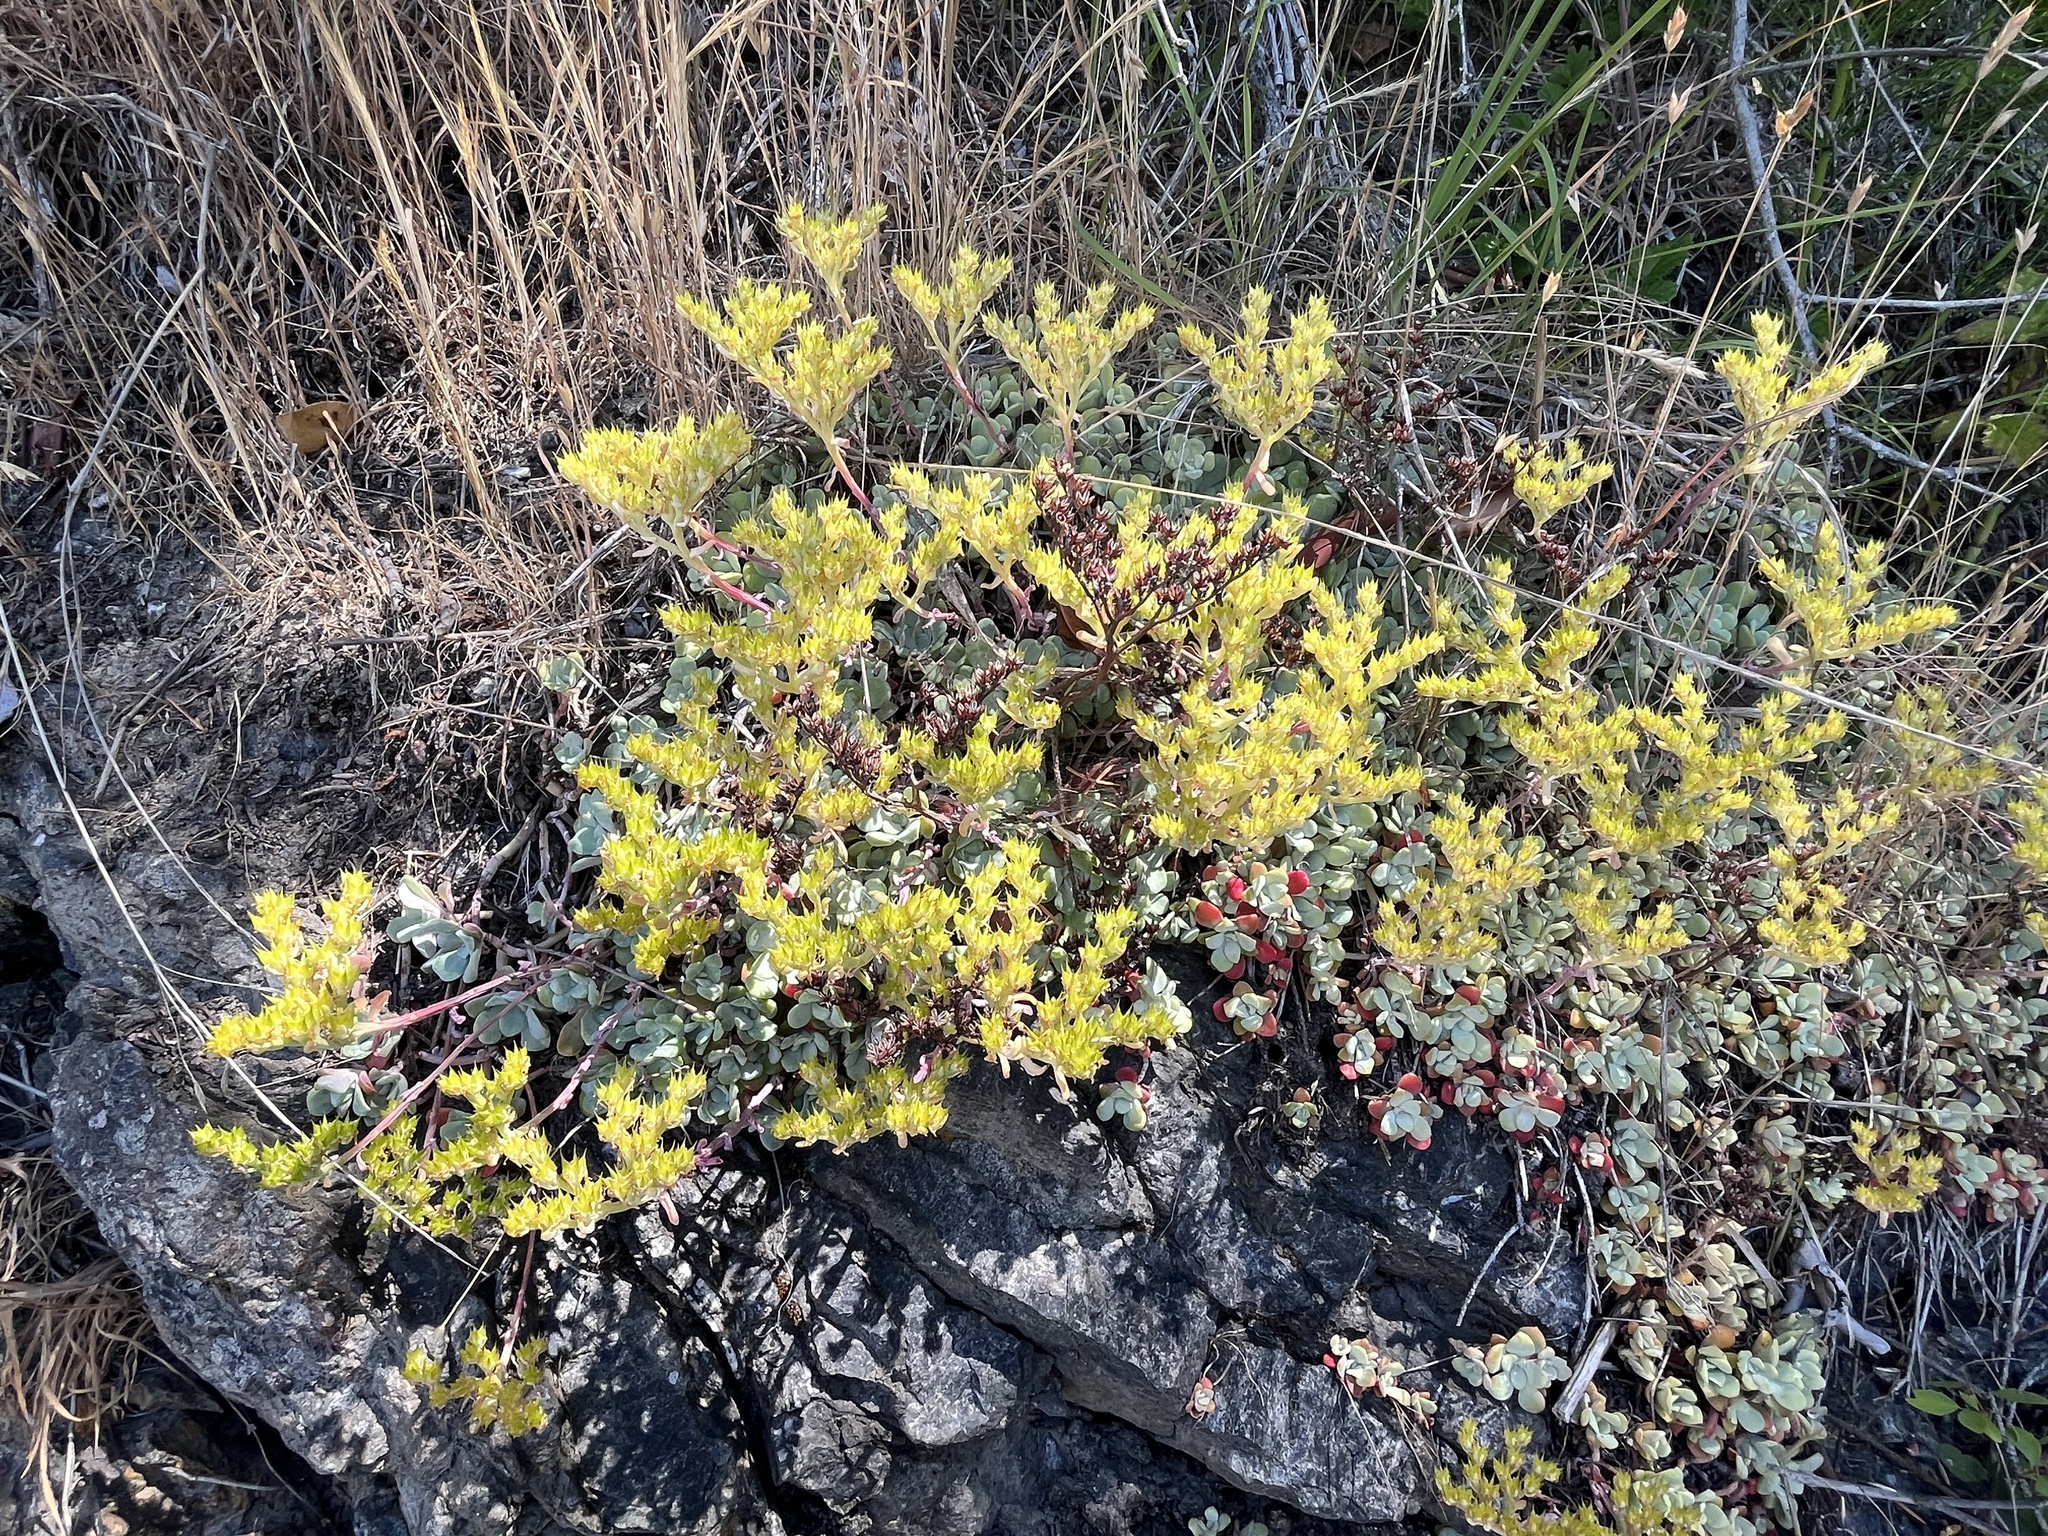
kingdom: Plantae
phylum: Tracheophyta
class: Magnoliopsida
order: Saxifragales
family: Crassulaceae
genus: Sedum
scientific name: Sedum spathulifolium
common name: Colorado stonecrop
